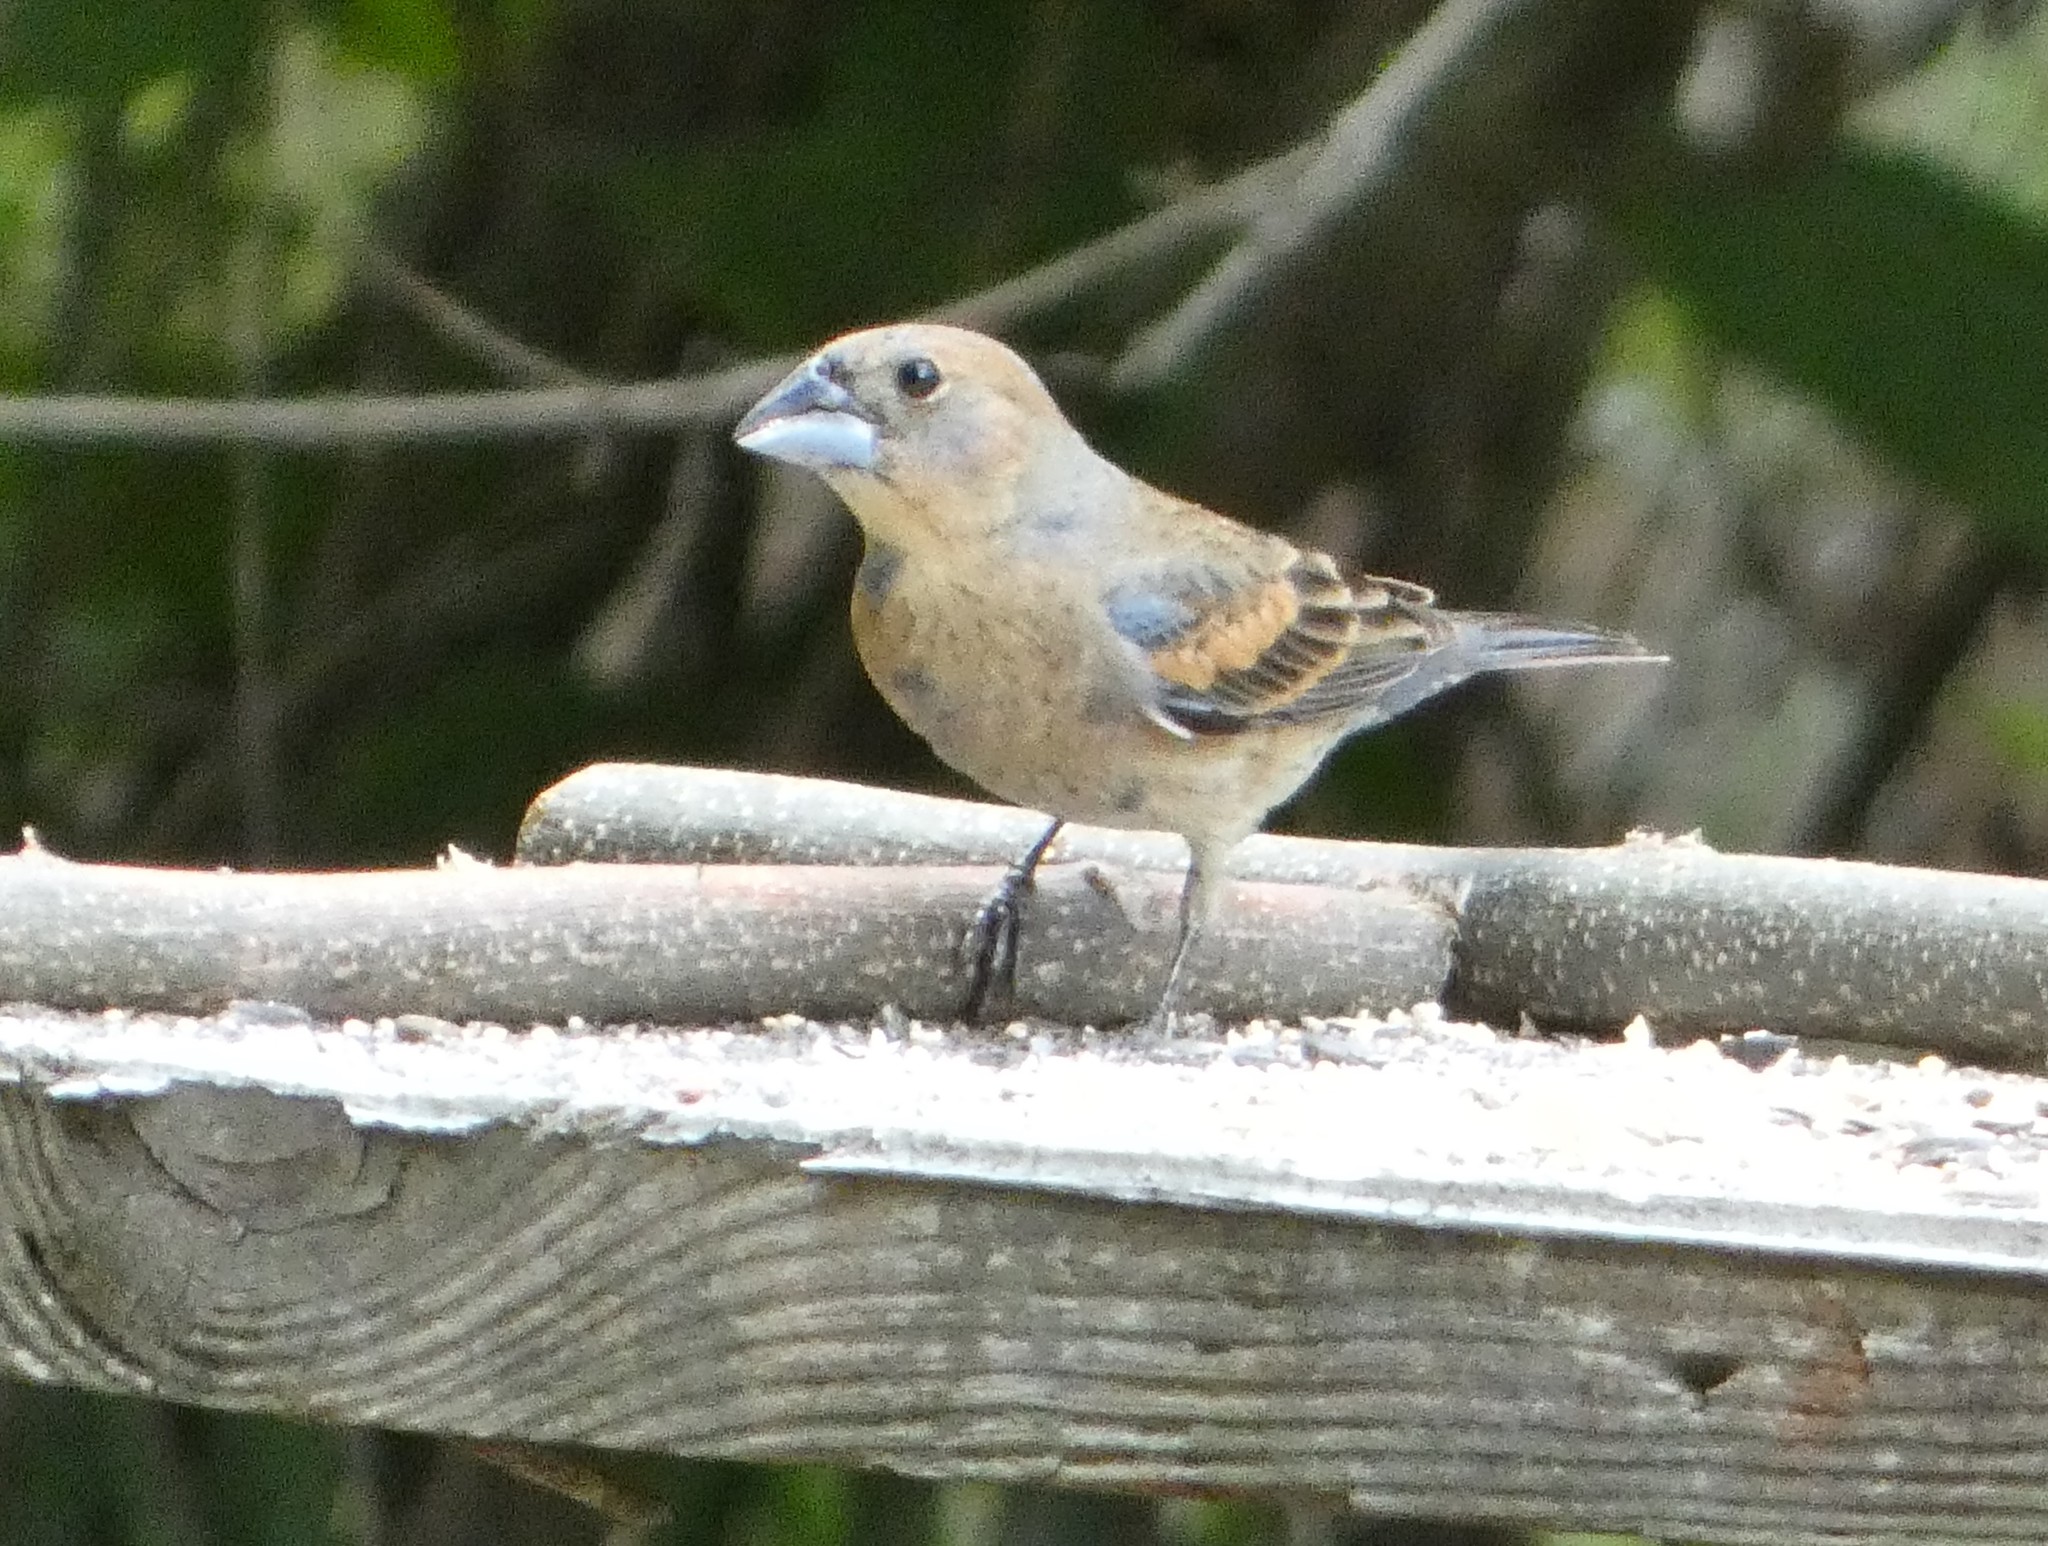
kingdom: Animalia
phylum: Chordata
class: Aves
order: Passeriformes
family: Cardinalidae
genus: Passerina
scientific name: Passerina caerulea
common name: Blue grosbeak
